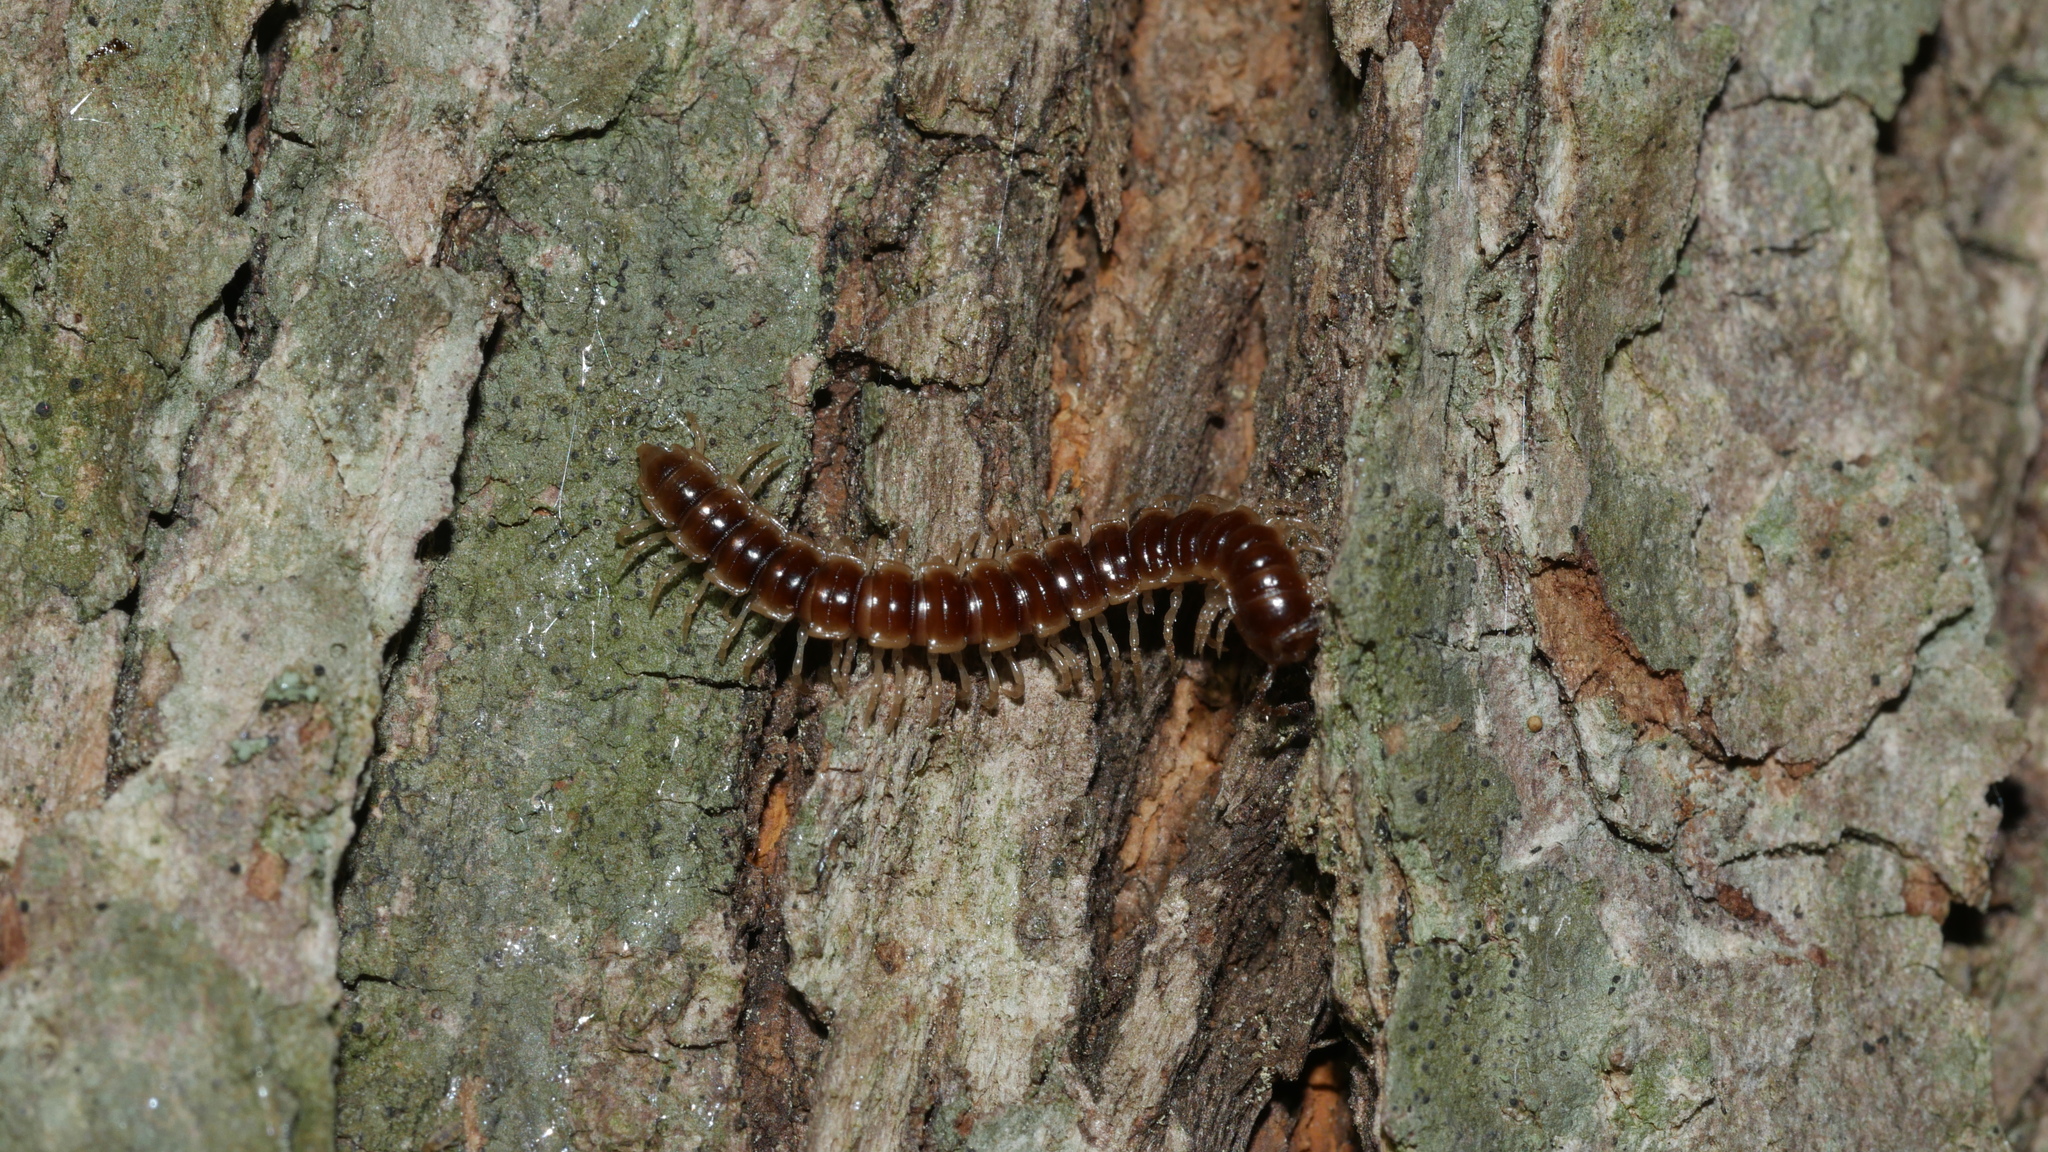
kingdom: Animalia
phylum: Arthropoda
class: Diplopoda
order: Polydesmida
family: Paradoxosomatidae
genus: Oxidus
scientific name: Oxidus gracilis
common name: Greenhouse millipede
